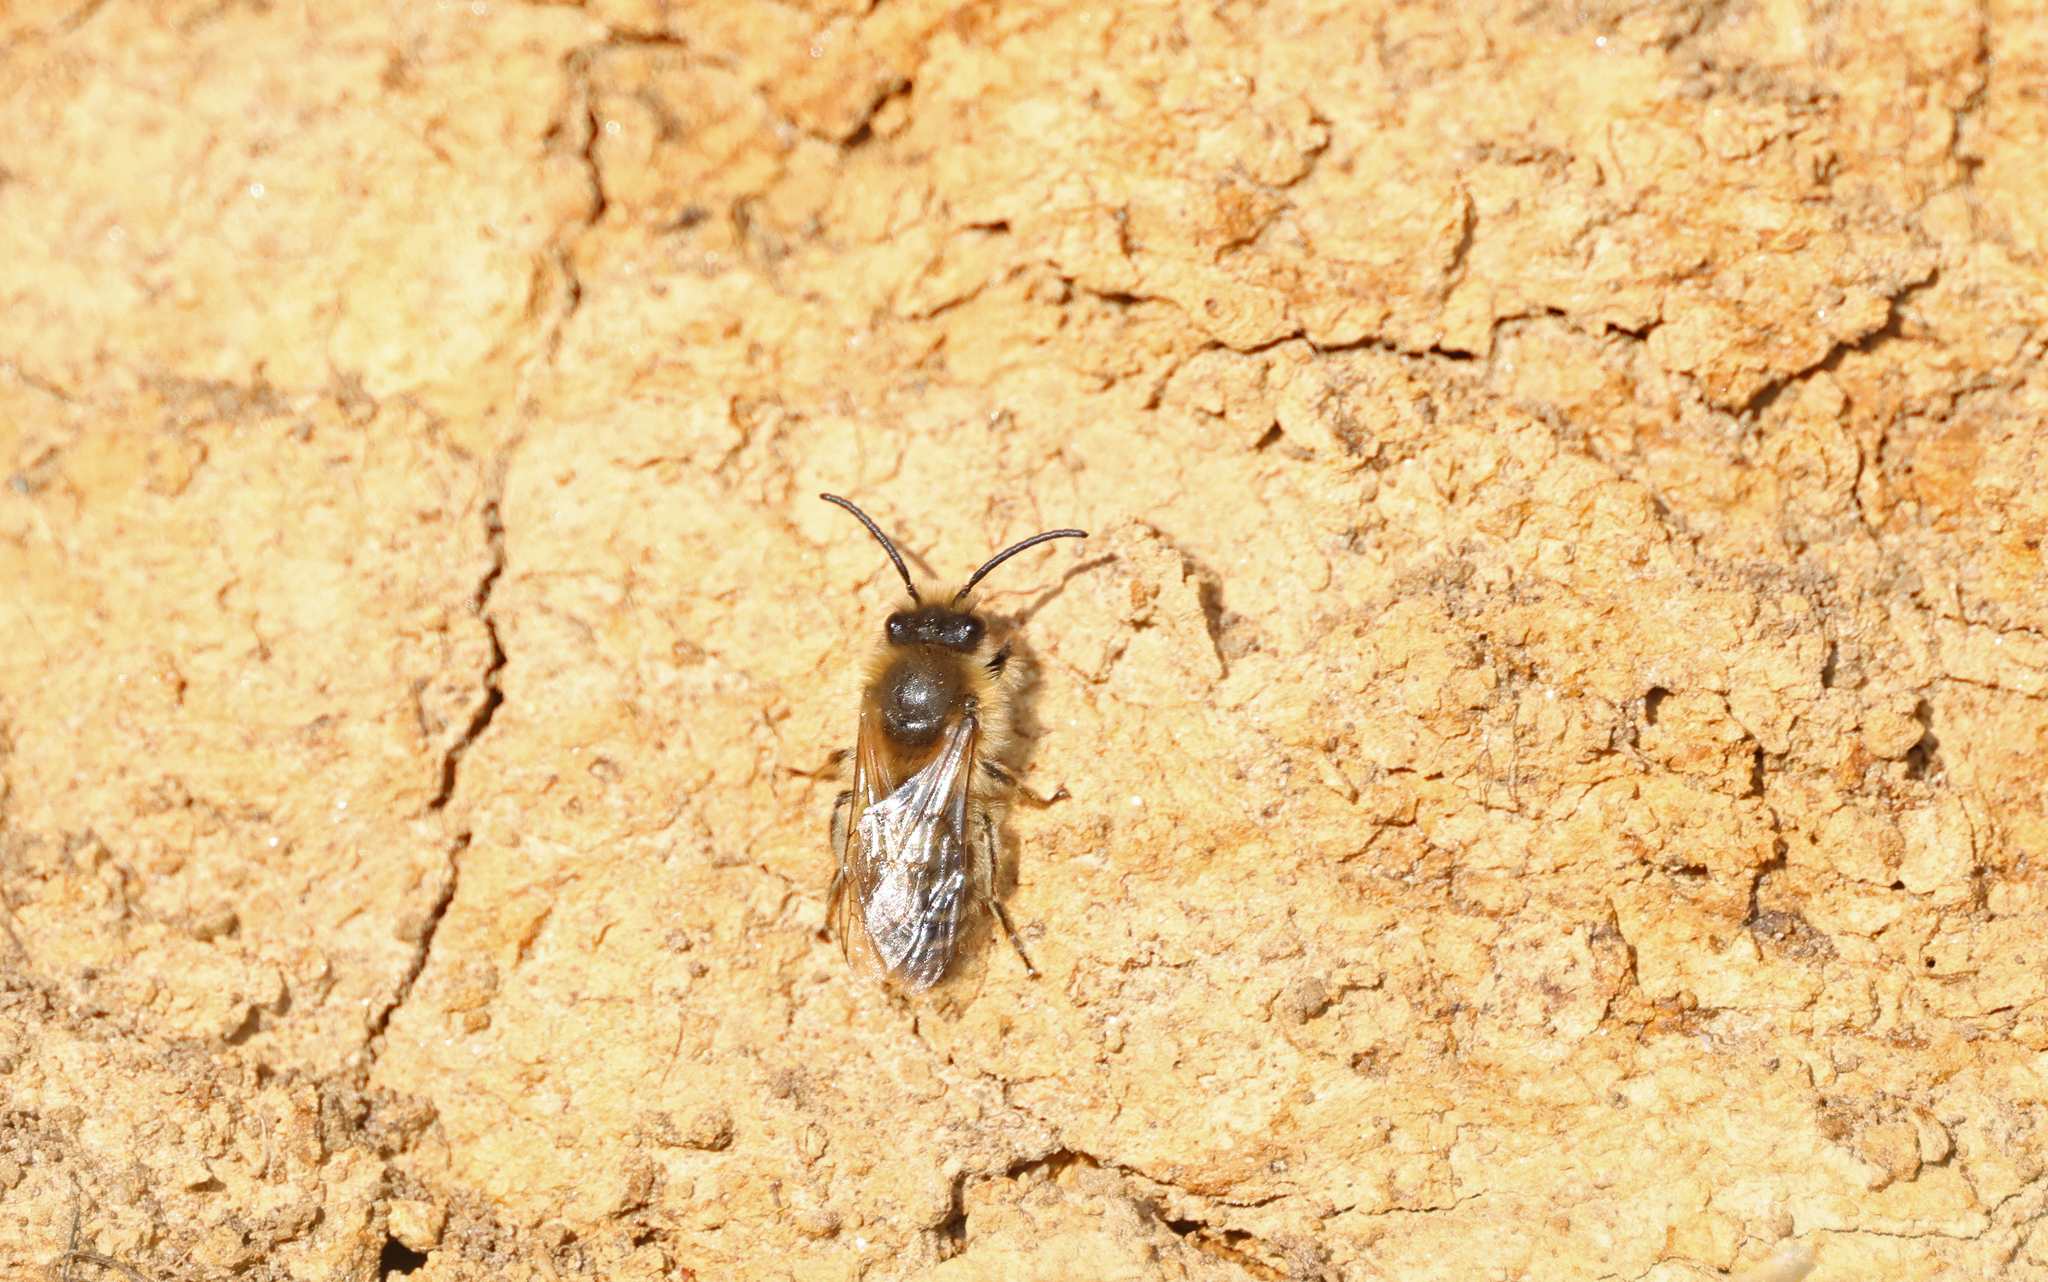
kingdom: Animalia
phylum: Arthropoda
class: Insecta
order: Hymenoptera
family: Colletidae
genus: Colletes
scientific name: Colletes cunicularius
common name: Early colletes
